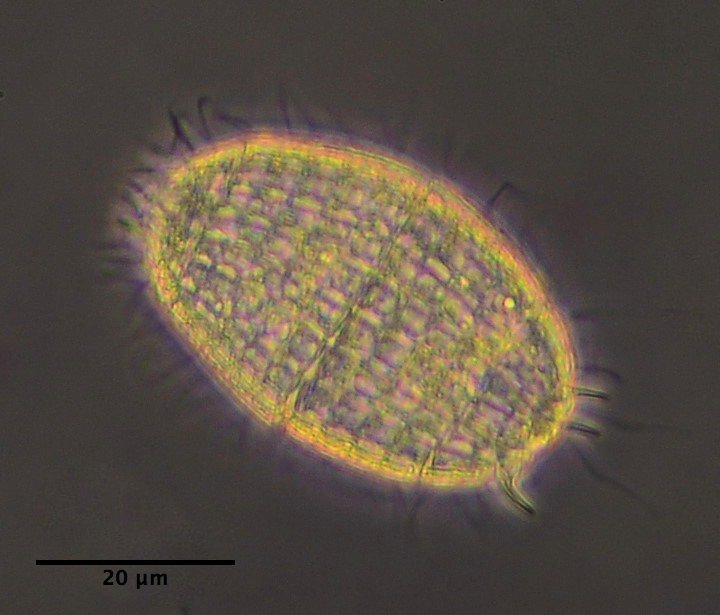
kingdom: Chromista
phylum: Ciliophora
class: Prostomatea
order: Prostomatida
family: Colepidae
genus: Coleps
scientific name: Coleps
